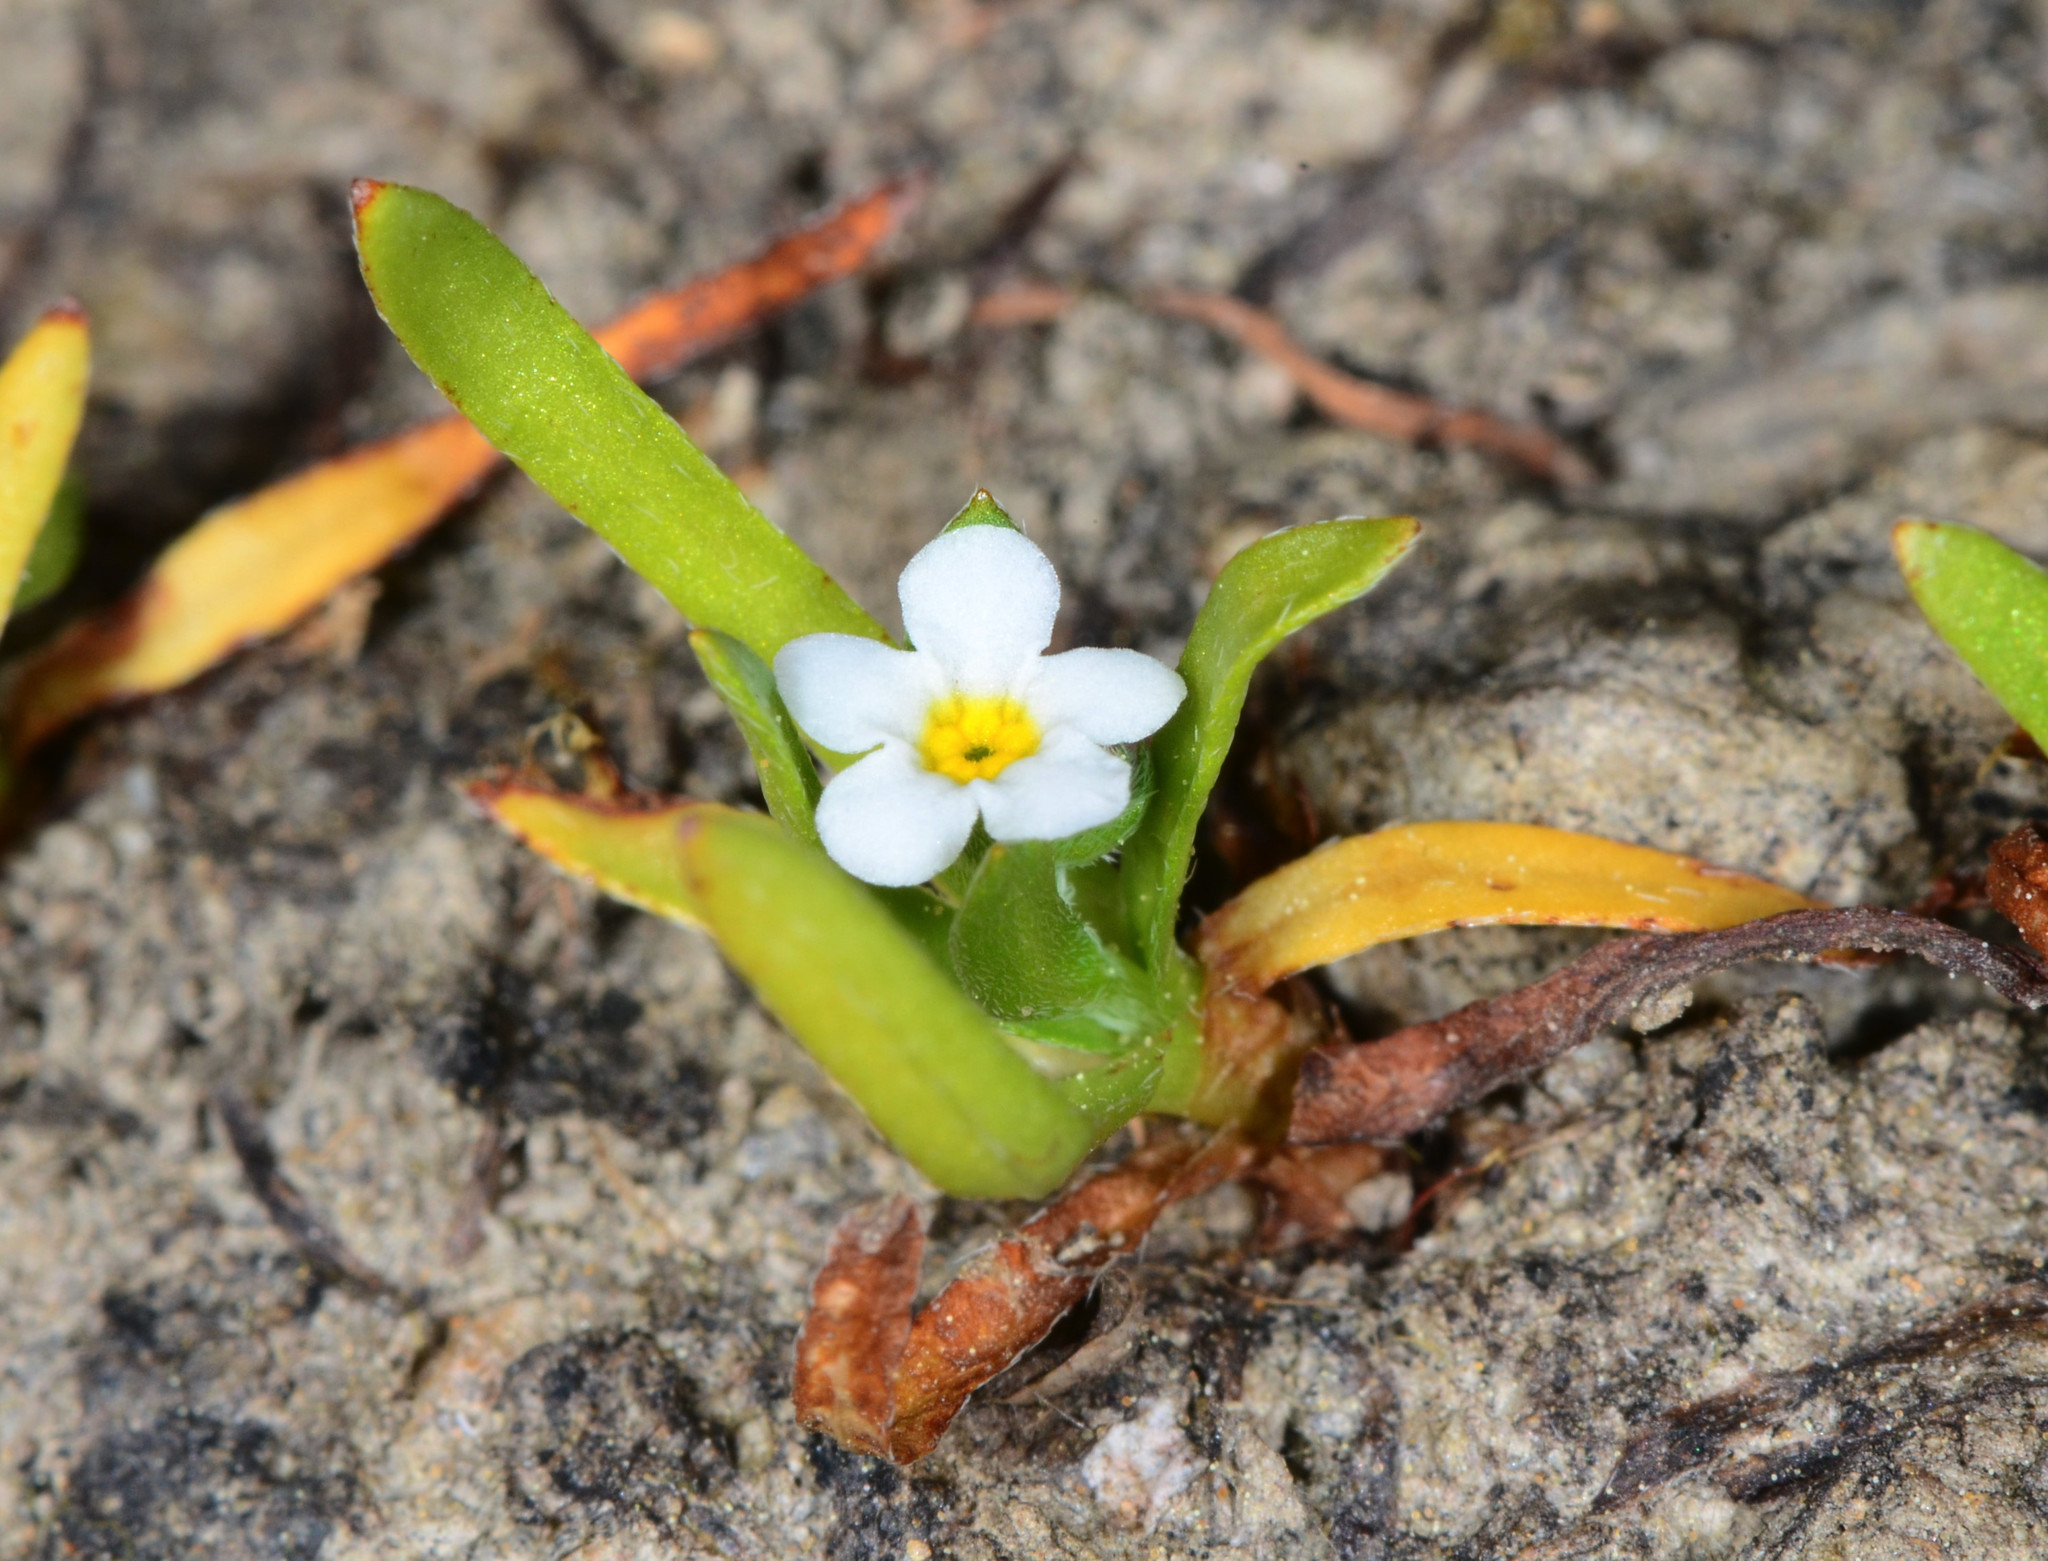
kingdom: Plantae
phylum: Tracheophyta
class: Magnoliopsida
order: Boraginales
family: Boraginaceae
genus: Plagiobothrys
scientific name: Plagiobothrys bracteatus
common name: Bract popcorn-flower
